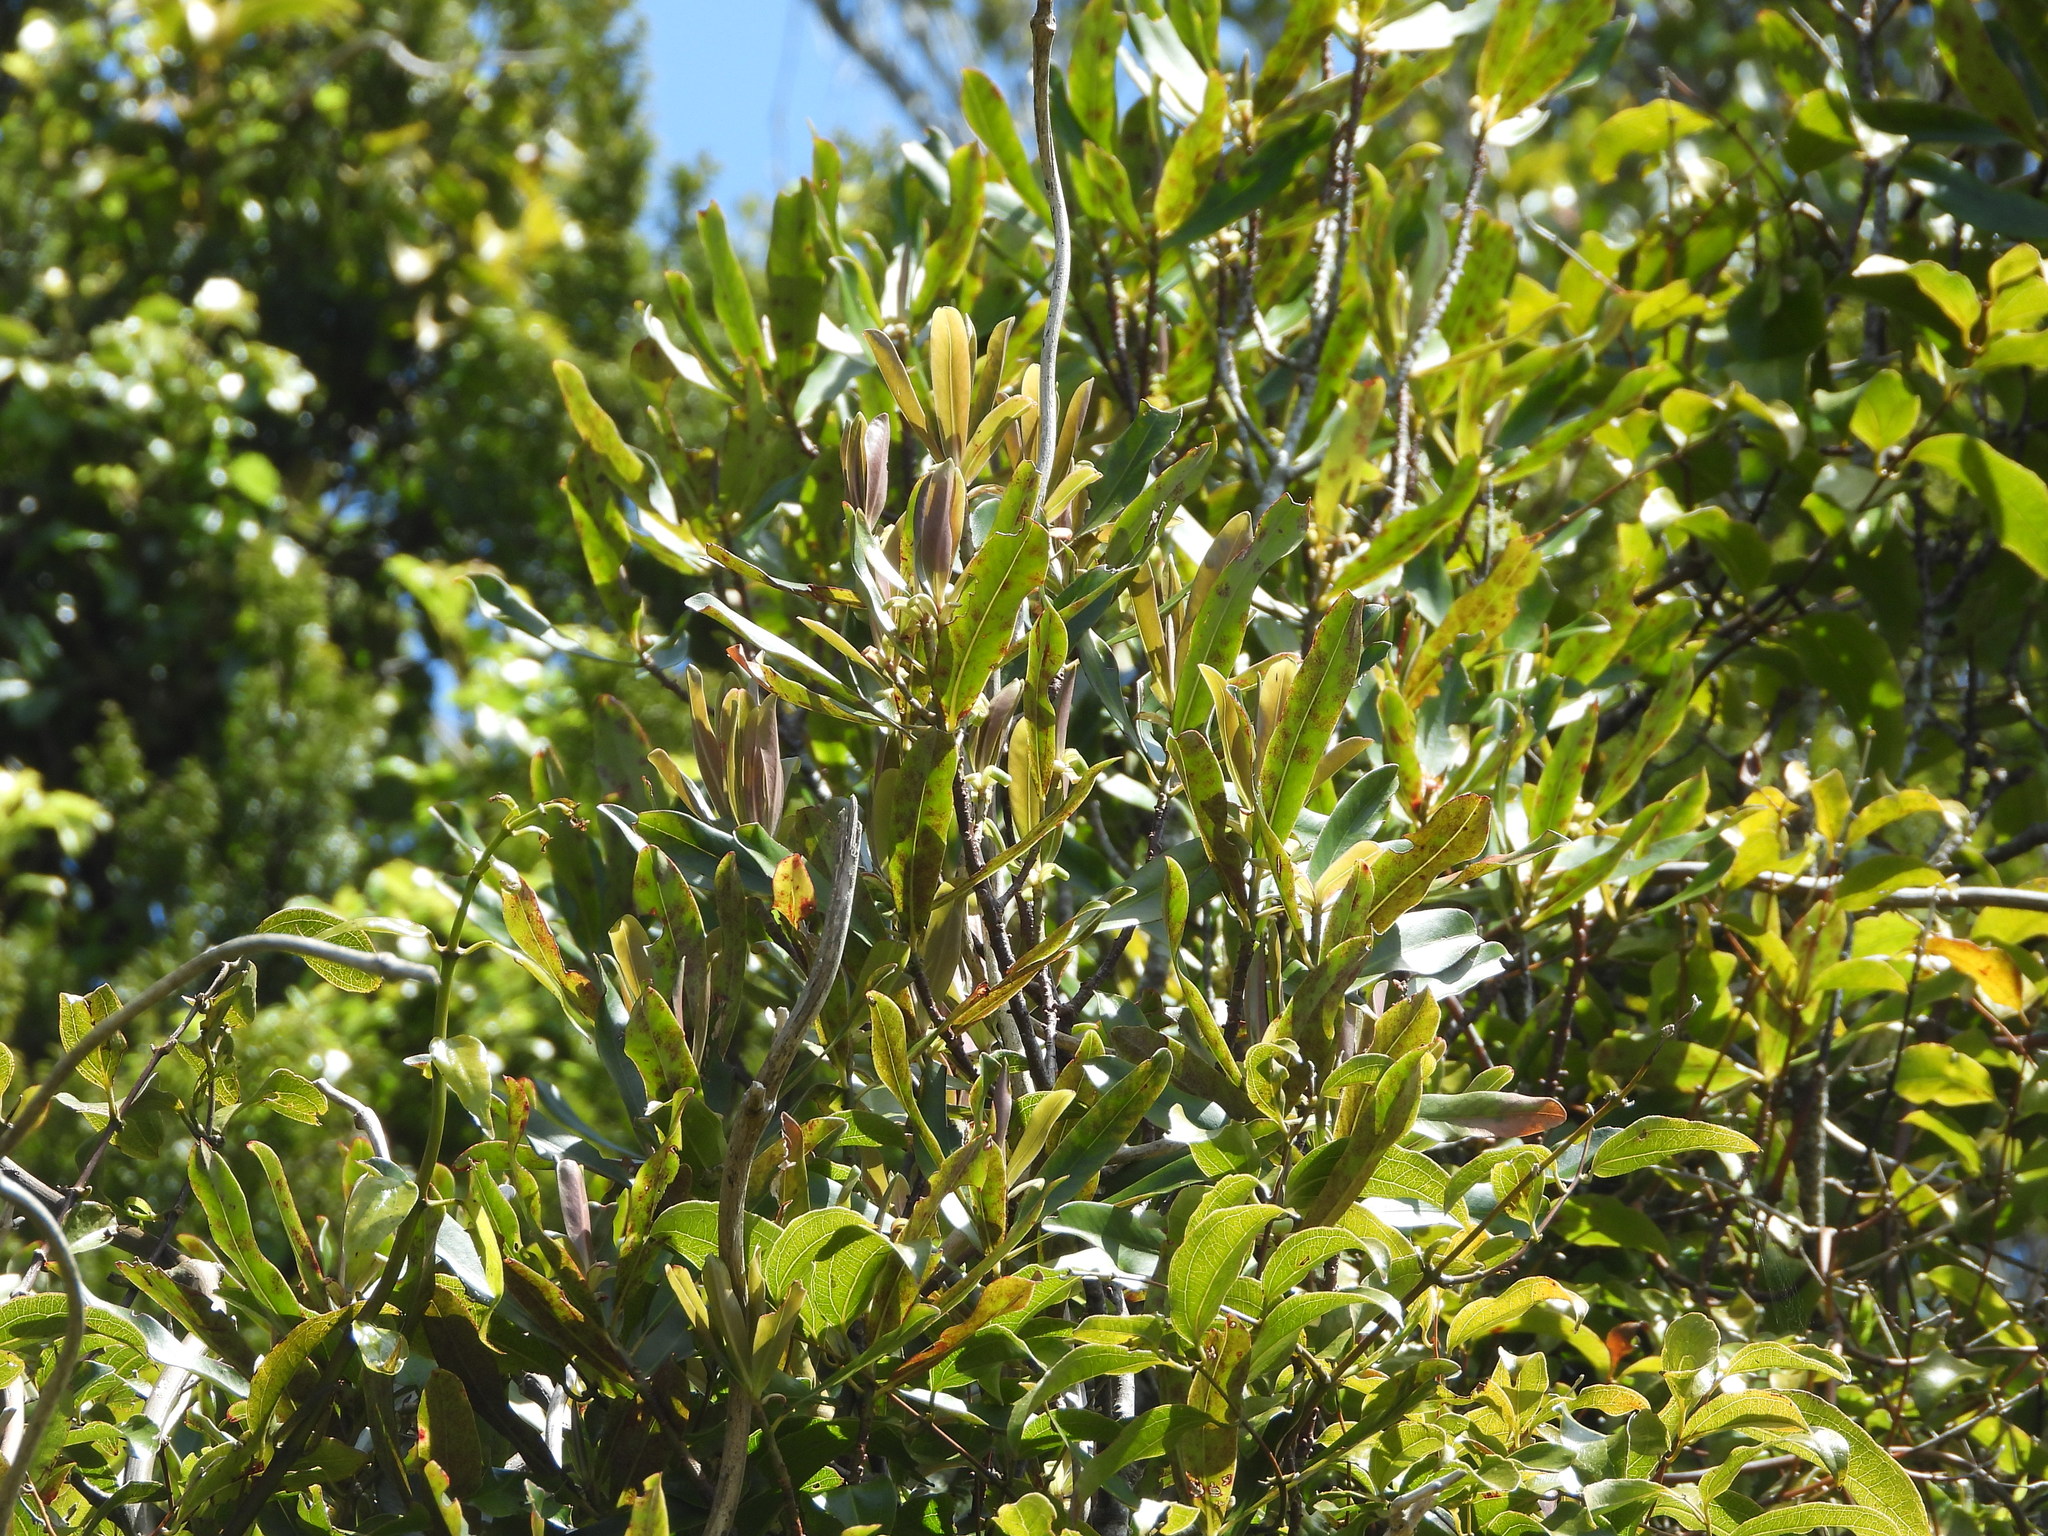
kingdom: Plantae
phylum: Tracheophyta
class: Magnoliopsida
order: Ericales
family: Primulaceae
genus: Myrsine
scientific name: Myrsine salicina
